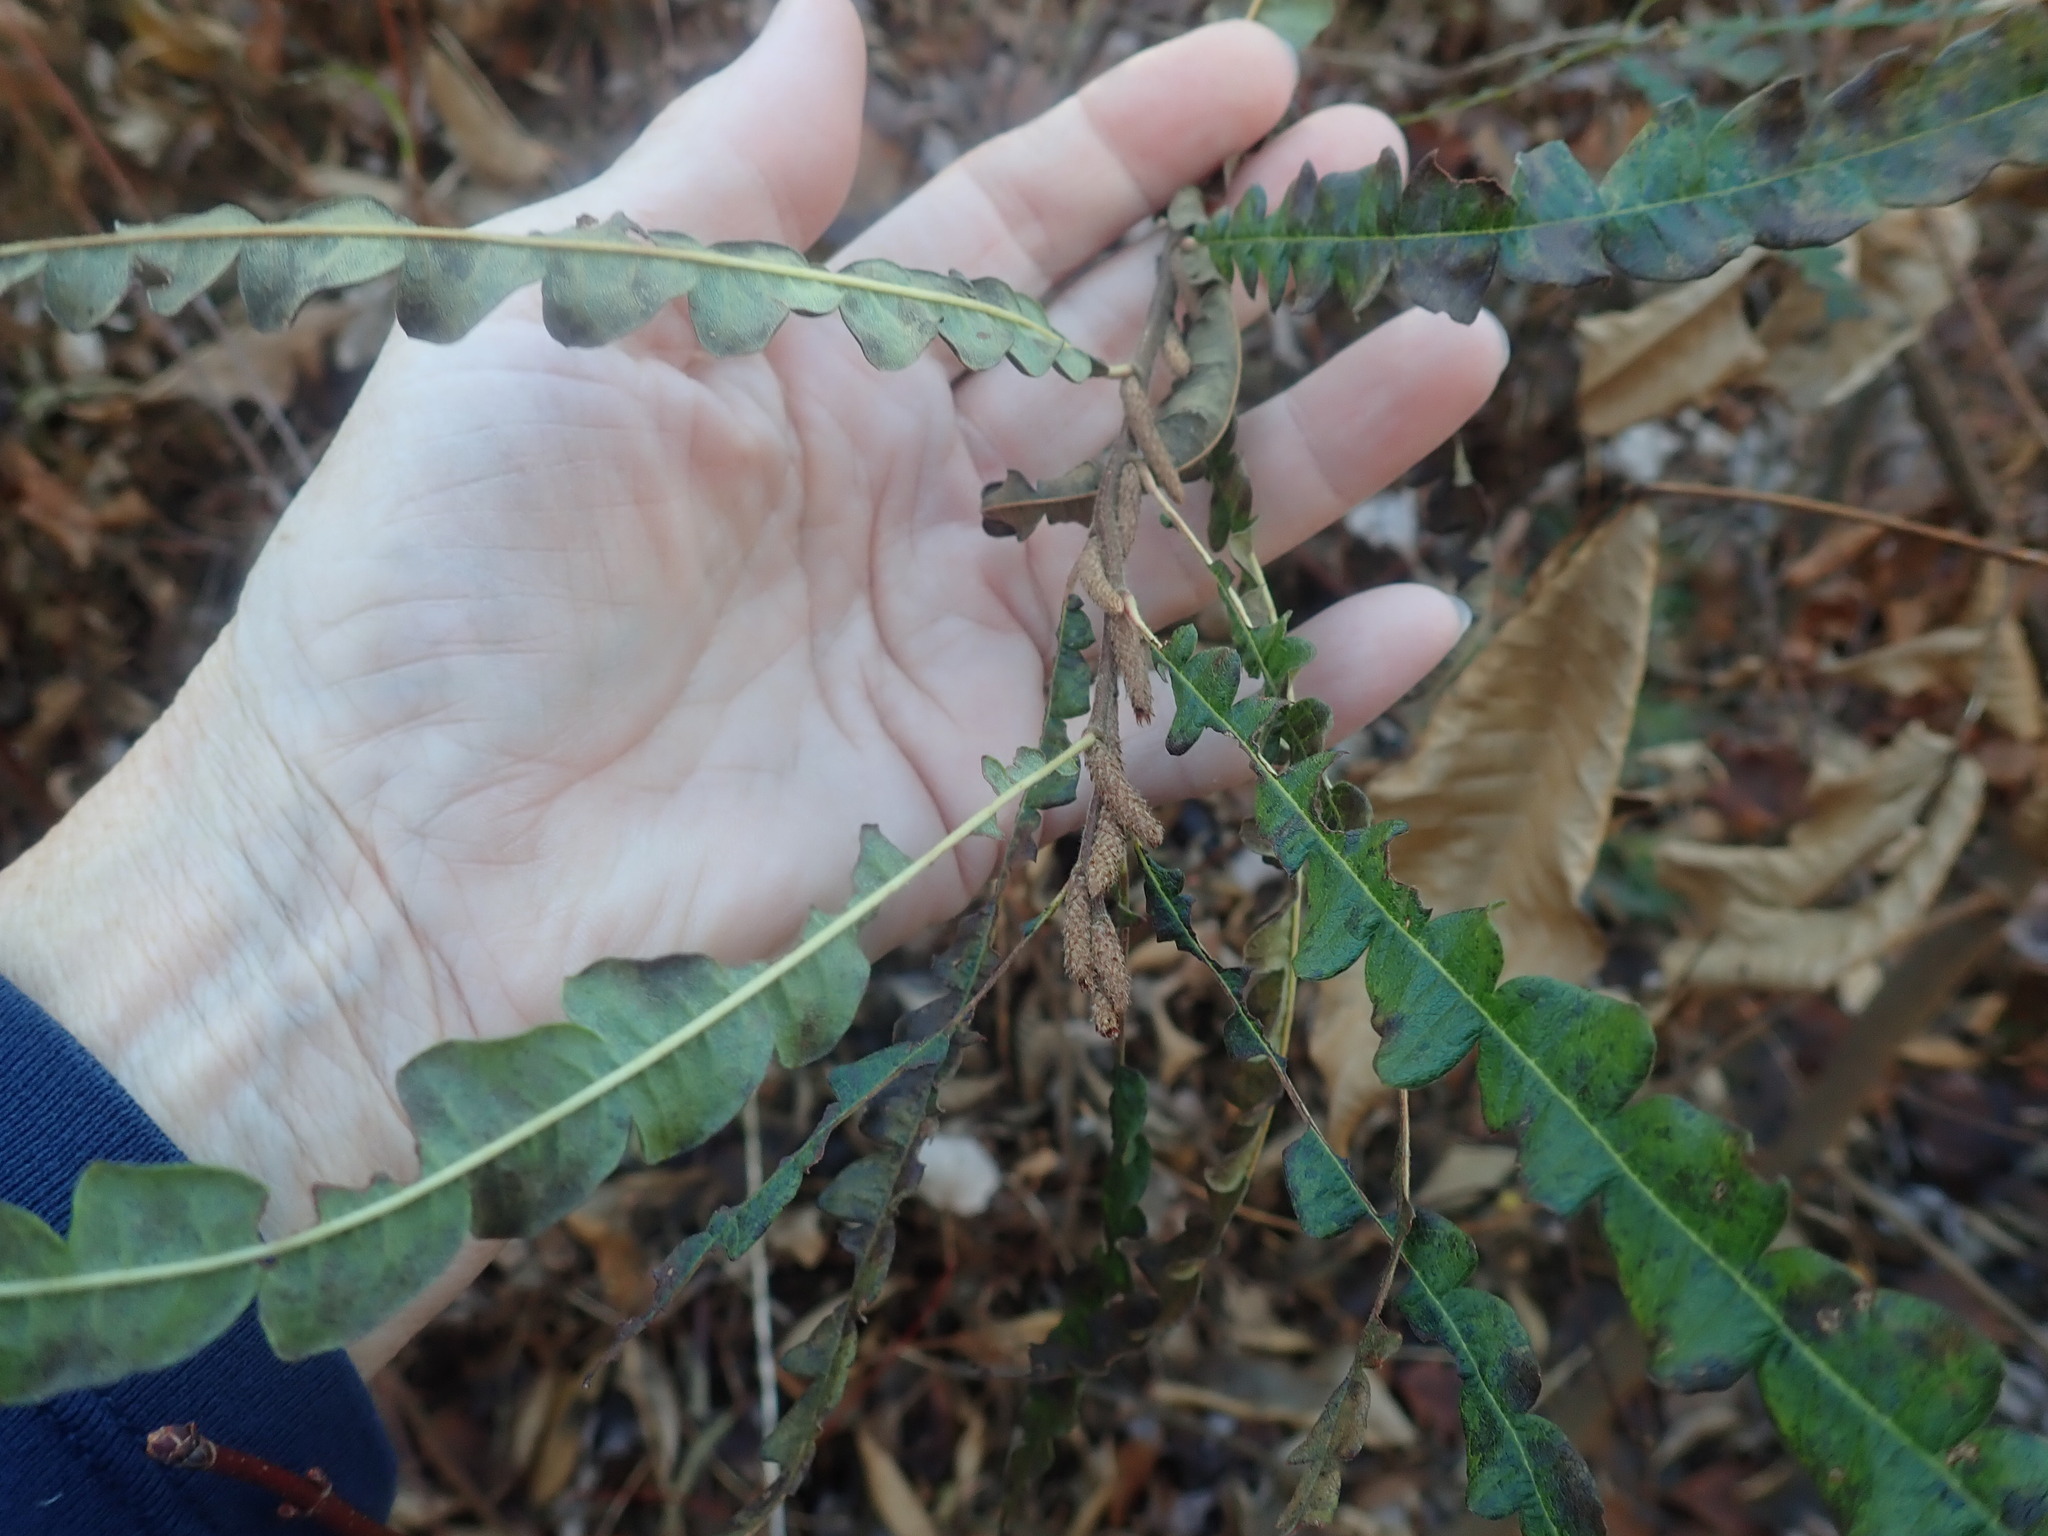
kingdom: Plantae
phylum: Tracheophyta
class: Magnoliopsida
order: Fagales
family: Myricaceae
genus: Comptonia
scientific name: Comptonia peregrina
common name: Sweet-fern
